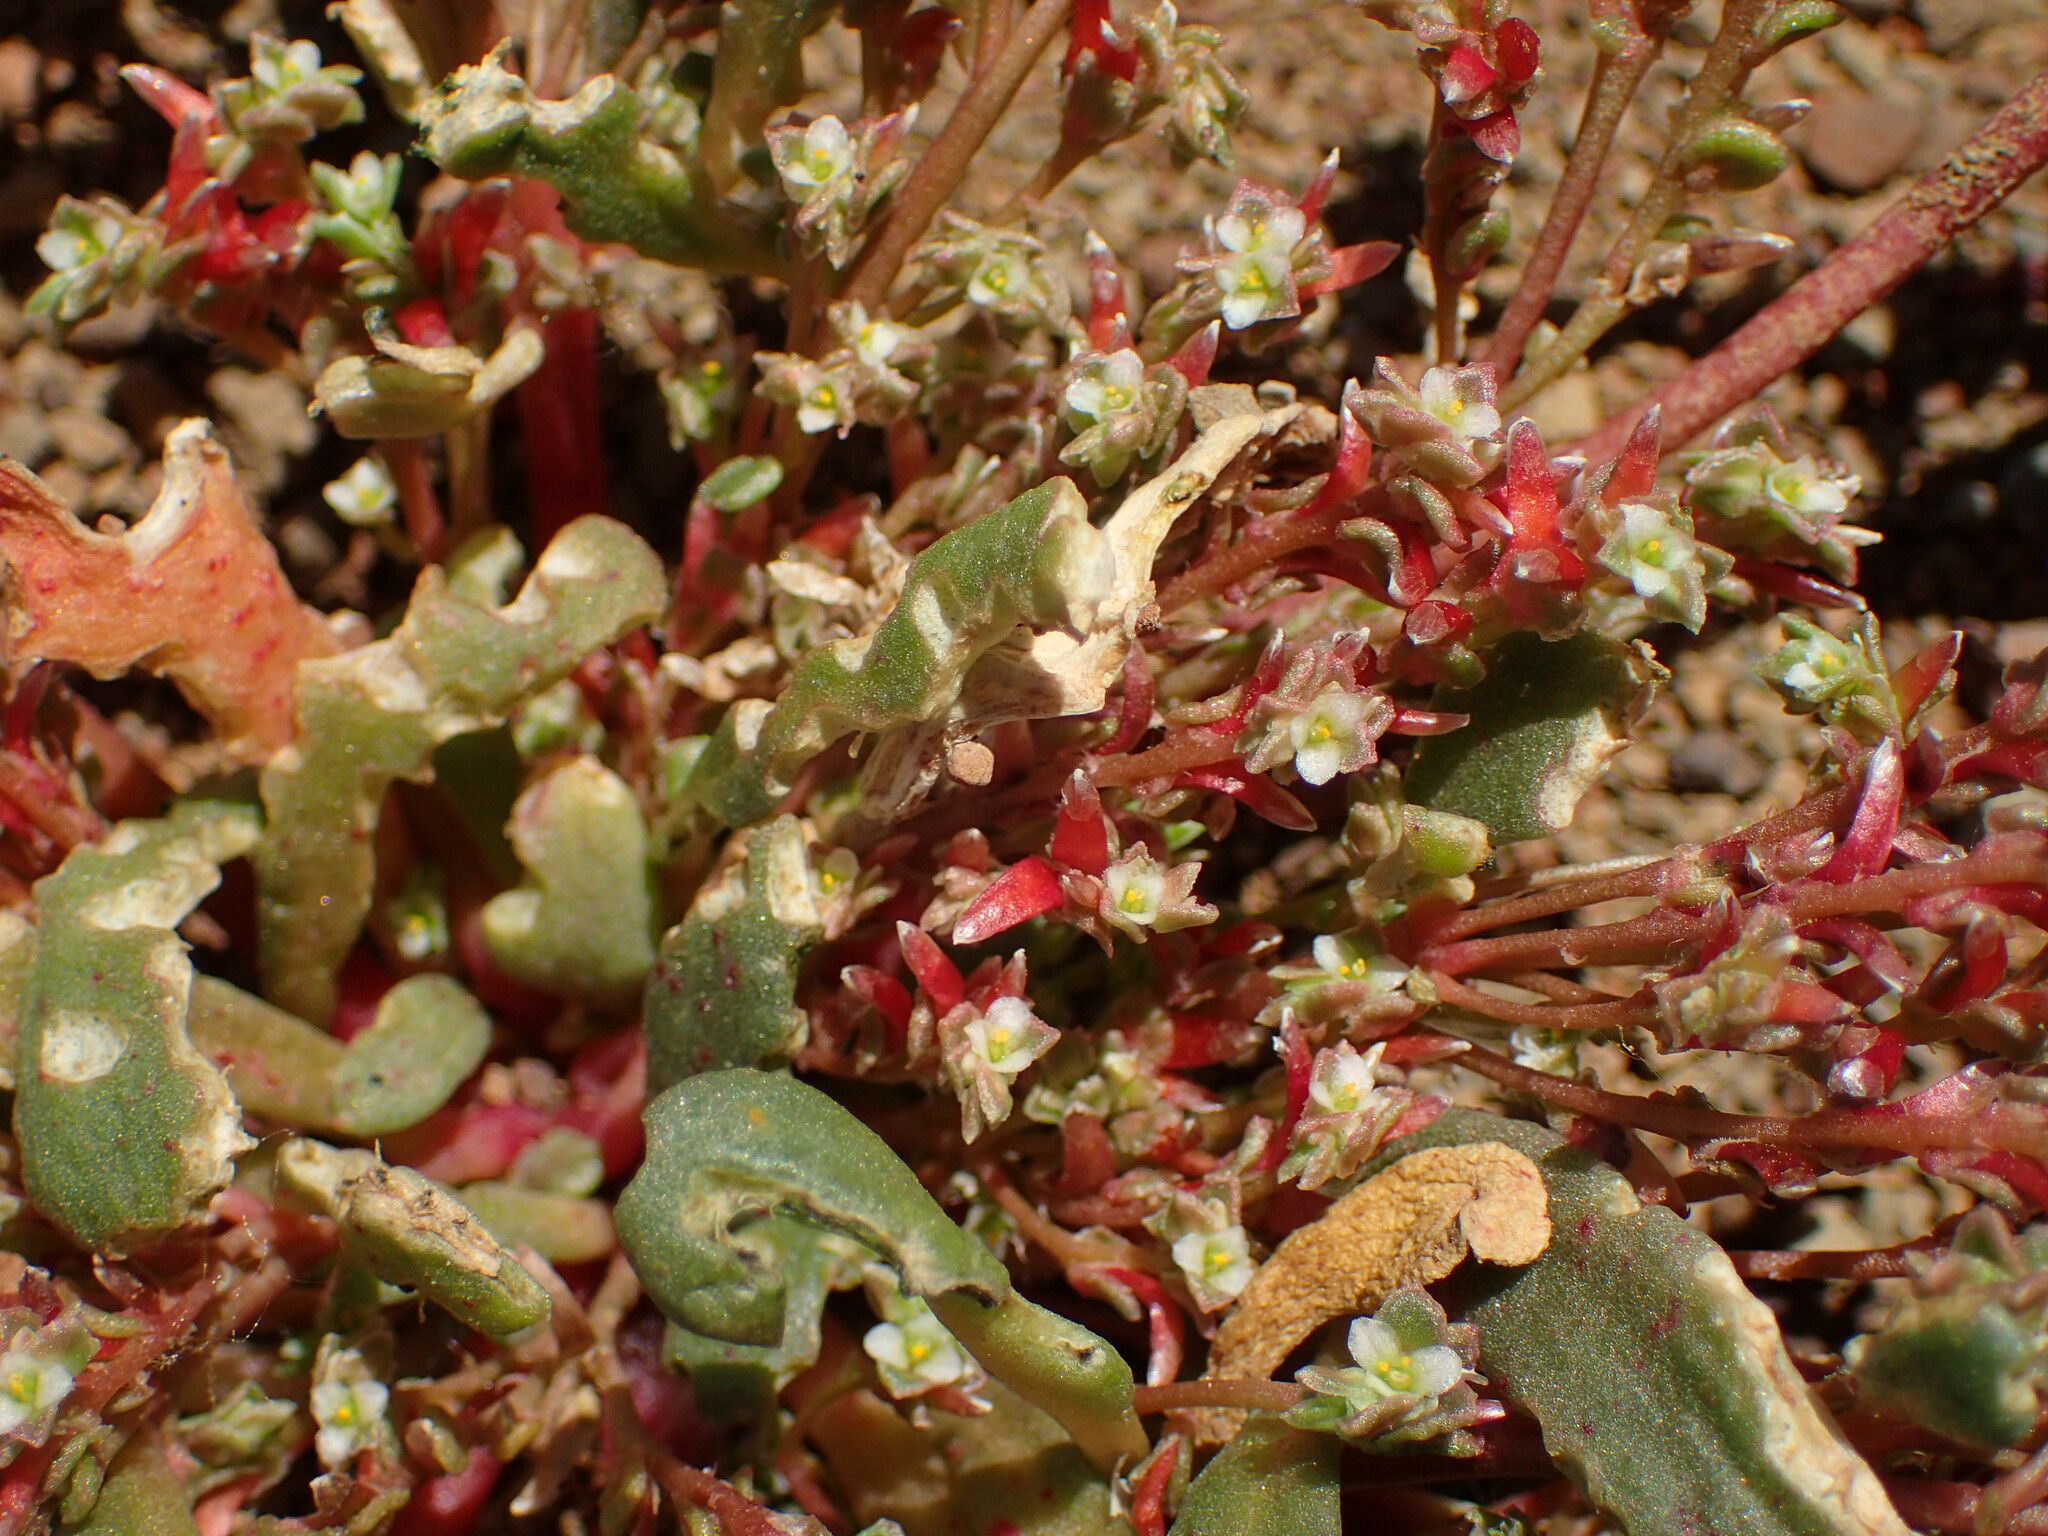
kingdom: Plantae
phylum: Tracheophyta
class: Magnoliopsida
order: Caryophyllales
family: Montiaceae
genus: Calyptridium
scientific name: Calyptridium monandrum
